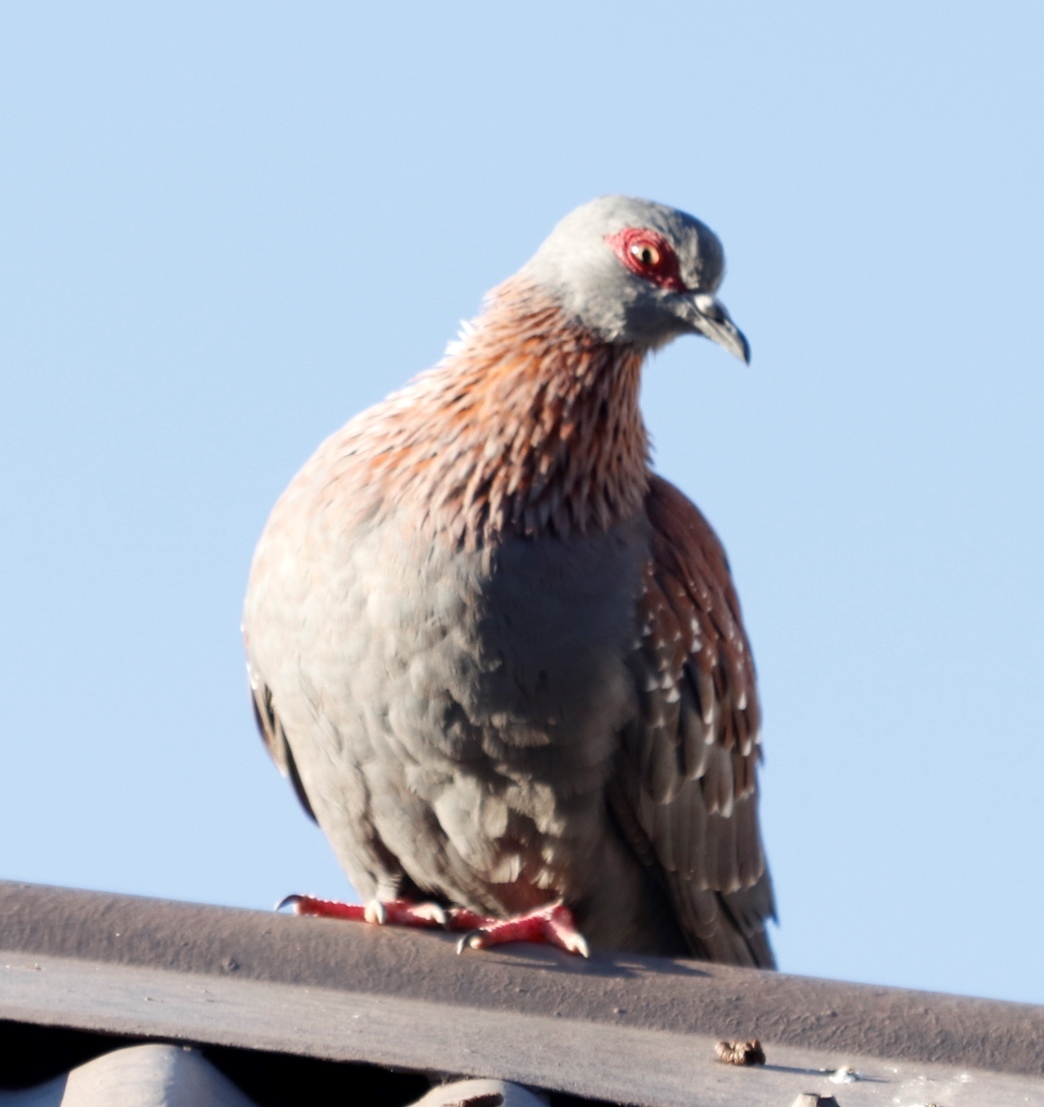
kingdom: Animalia
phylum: Chordata
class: Aves
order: Columbiformes
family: Columbidae
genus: Columba
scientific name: Columba guinea
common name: Speckled pigeon
